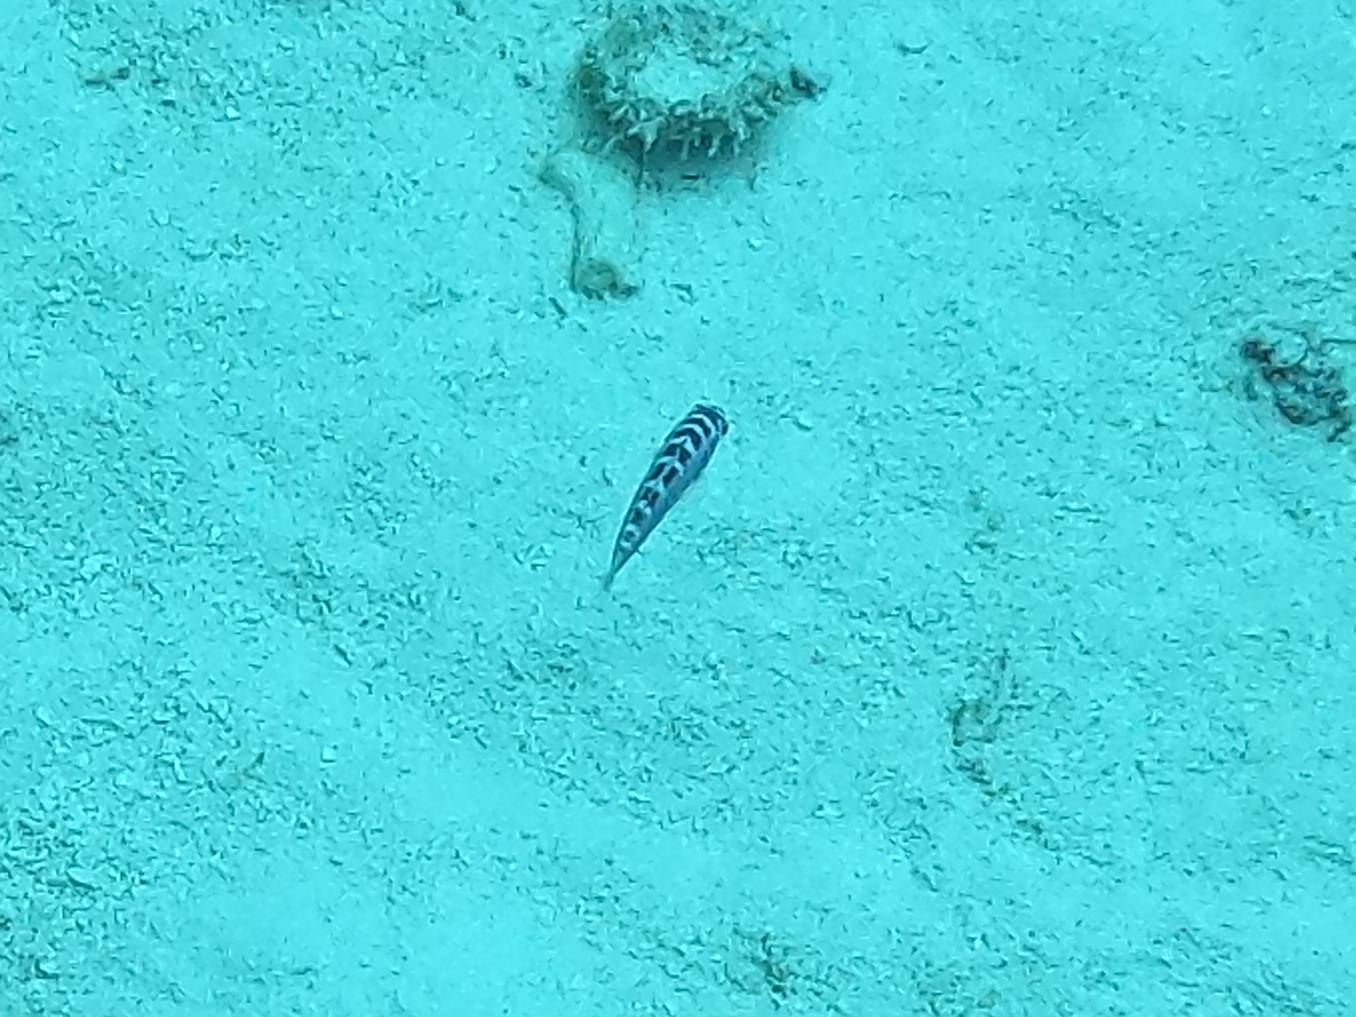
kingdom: Animalia
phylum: Chordata
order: Perciformes
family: Serranidae
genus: Serranus
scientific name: Serranus tortugarum
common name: Chalk bass
